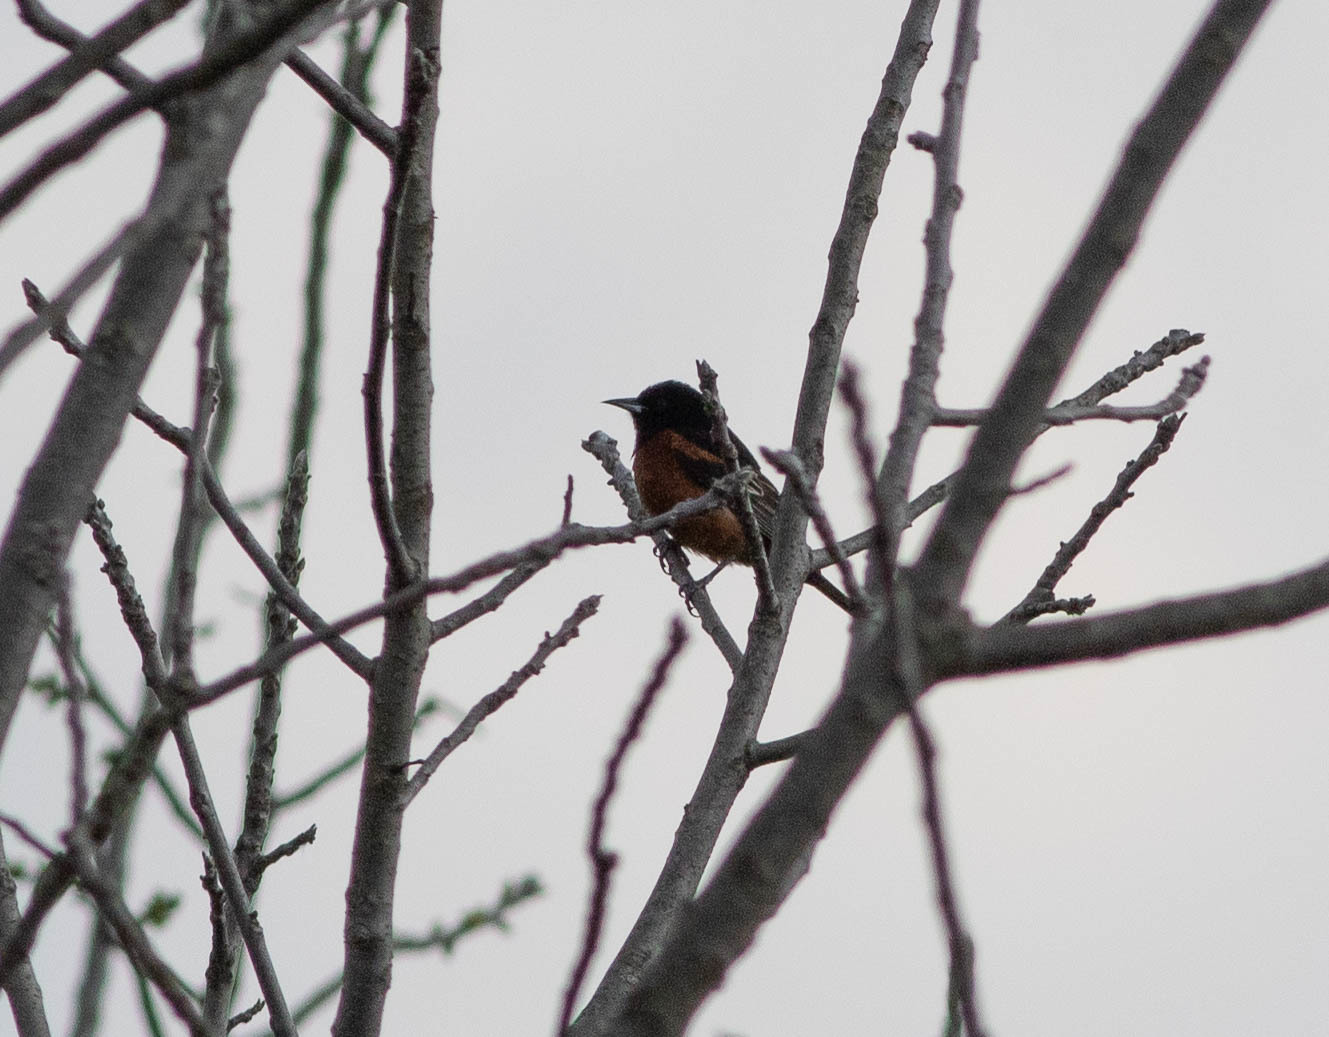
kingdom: Animalia
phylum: Chordata
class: Aves
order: Passeriformes
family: Icteridae
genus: Icterus
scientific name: Icterus spurius
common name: Orchard oriole
